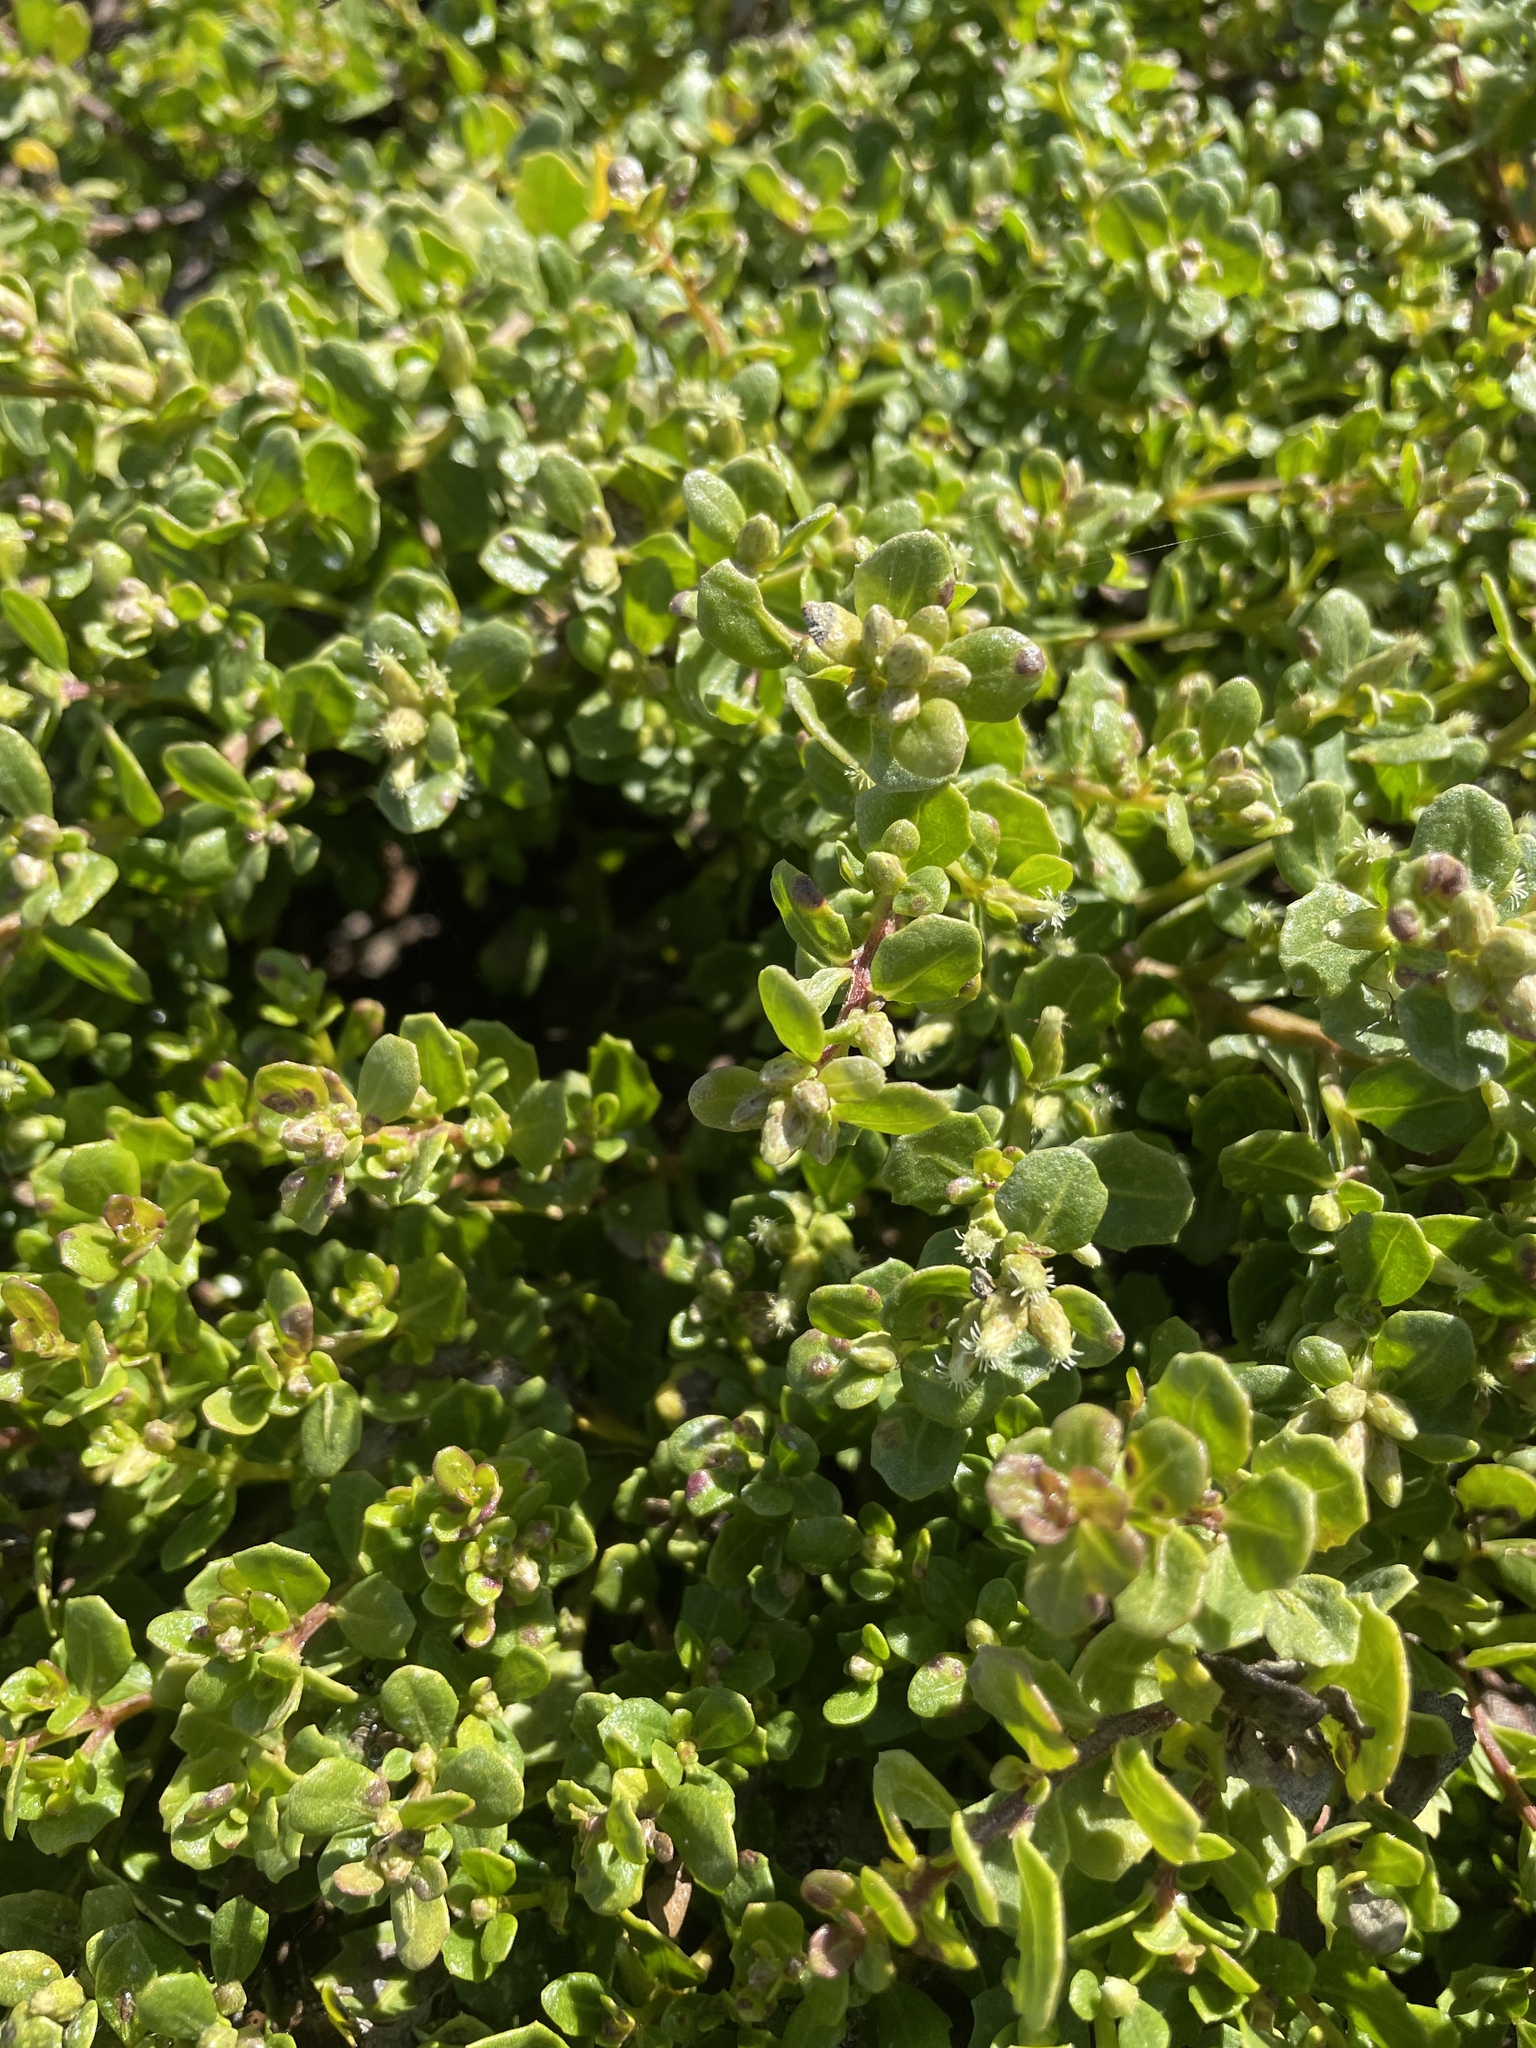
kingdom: Plantae
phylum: Tracheophyta
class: Magnoliopsida
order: Asterales
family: Asteraceae
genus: Baccharis
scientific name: Baccharis pilularis
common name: Coyotebrush
